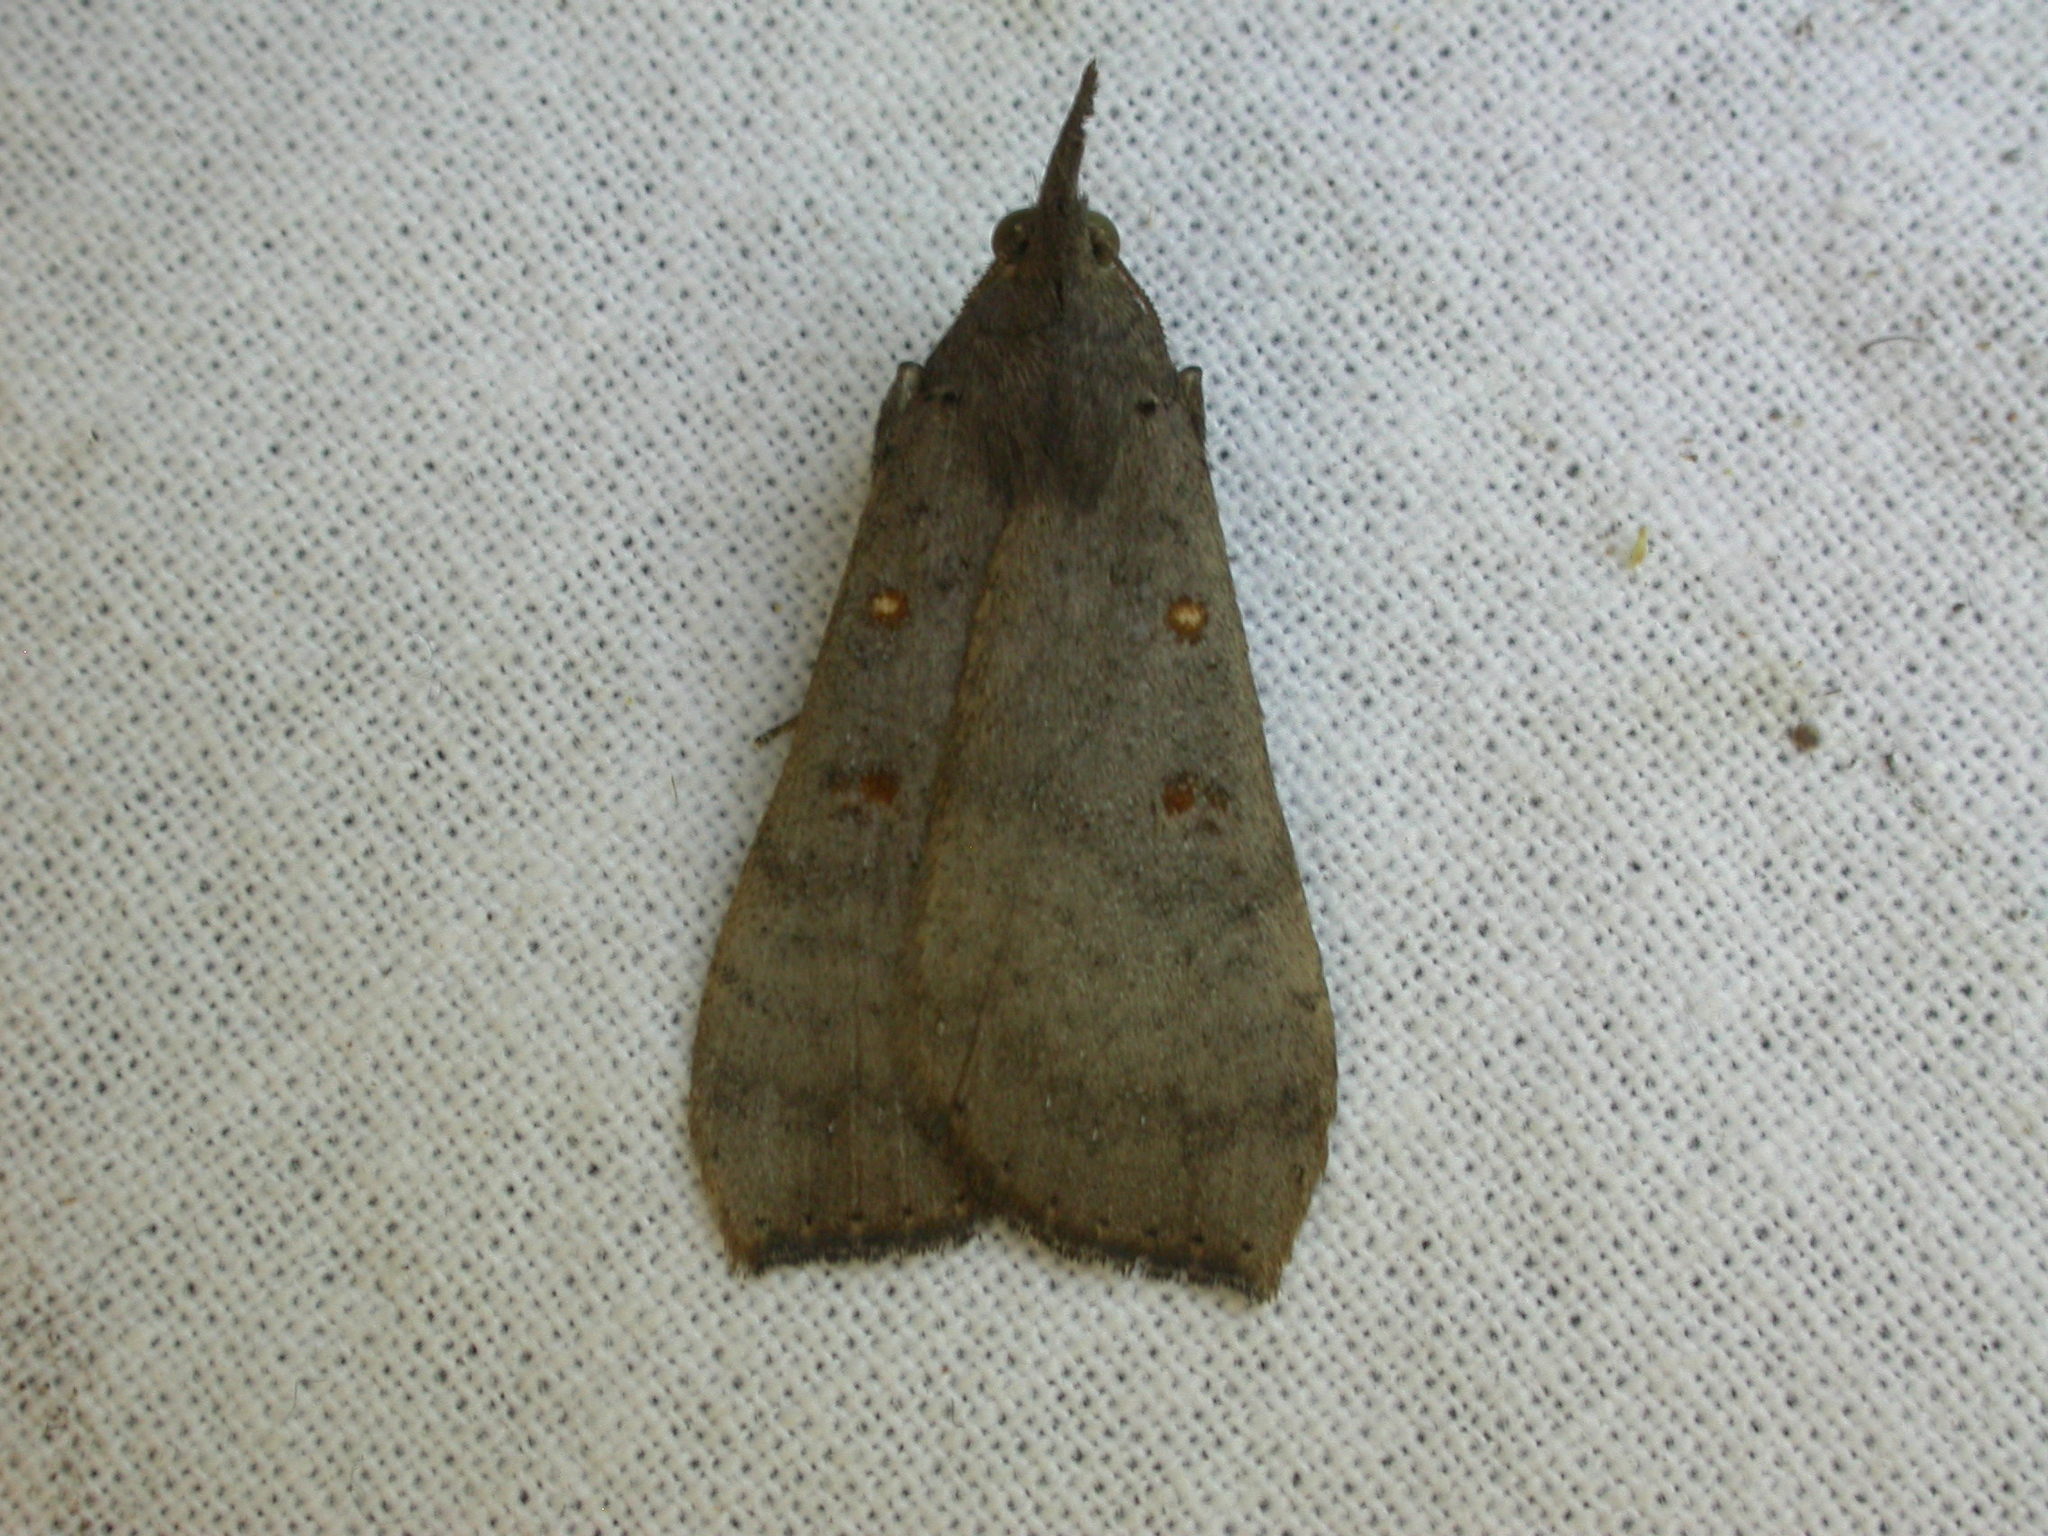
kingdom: Animalia
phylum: Arthropoda
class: Insecta
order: Lepidoptera
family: Erebidae
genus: Rhapsa
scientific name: Rhapsa suscitatalis
